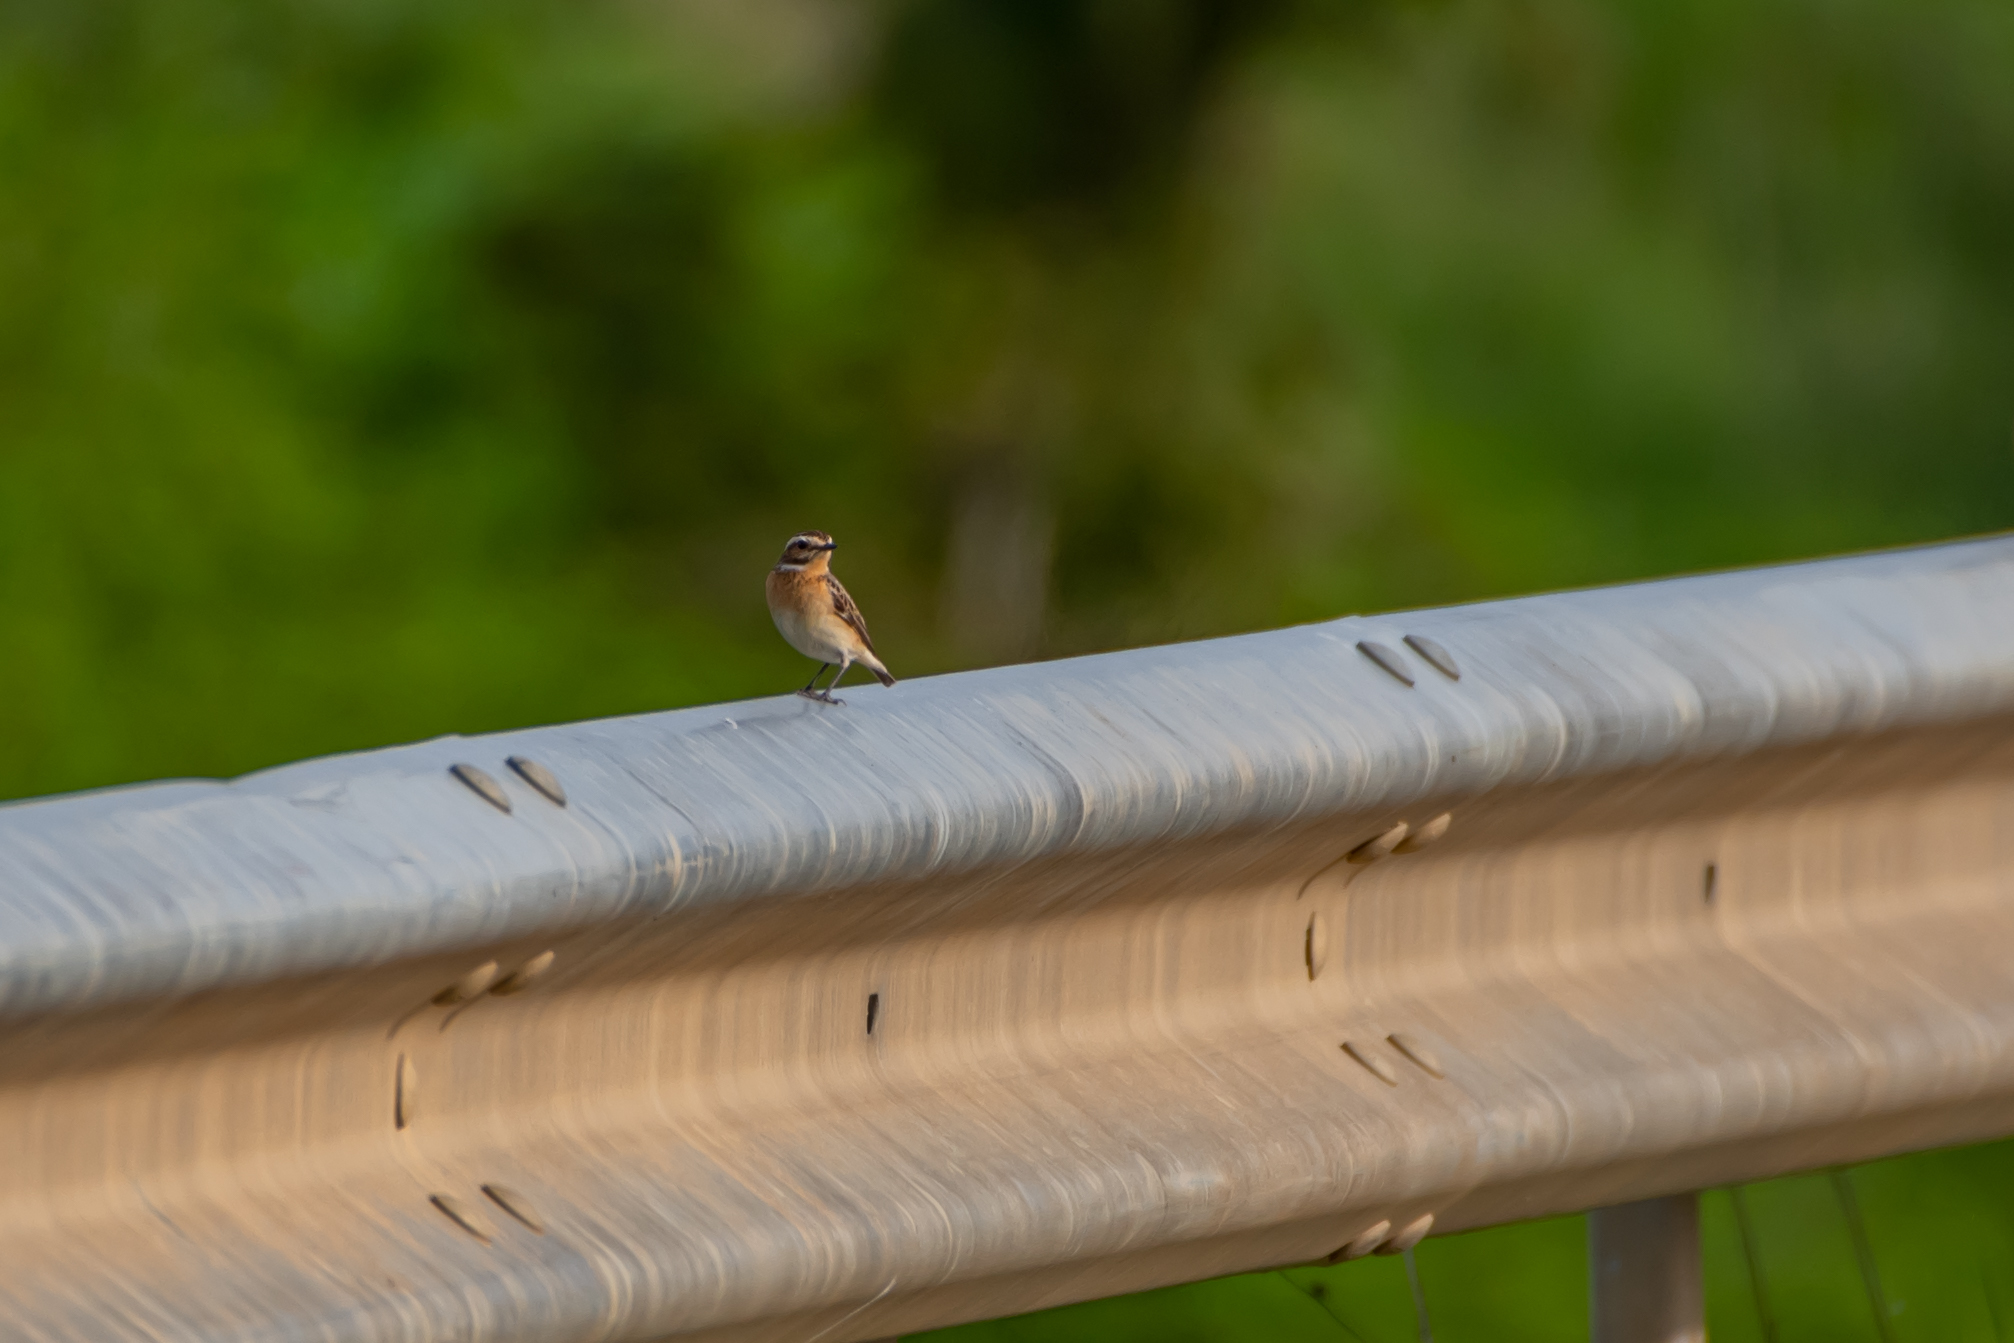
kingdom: Animalia
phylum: Chordata
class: Aves
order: Passeriformes
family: Muscicapidae
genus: Saxicola
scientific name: Saxicola rubetra
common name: Whinchat
